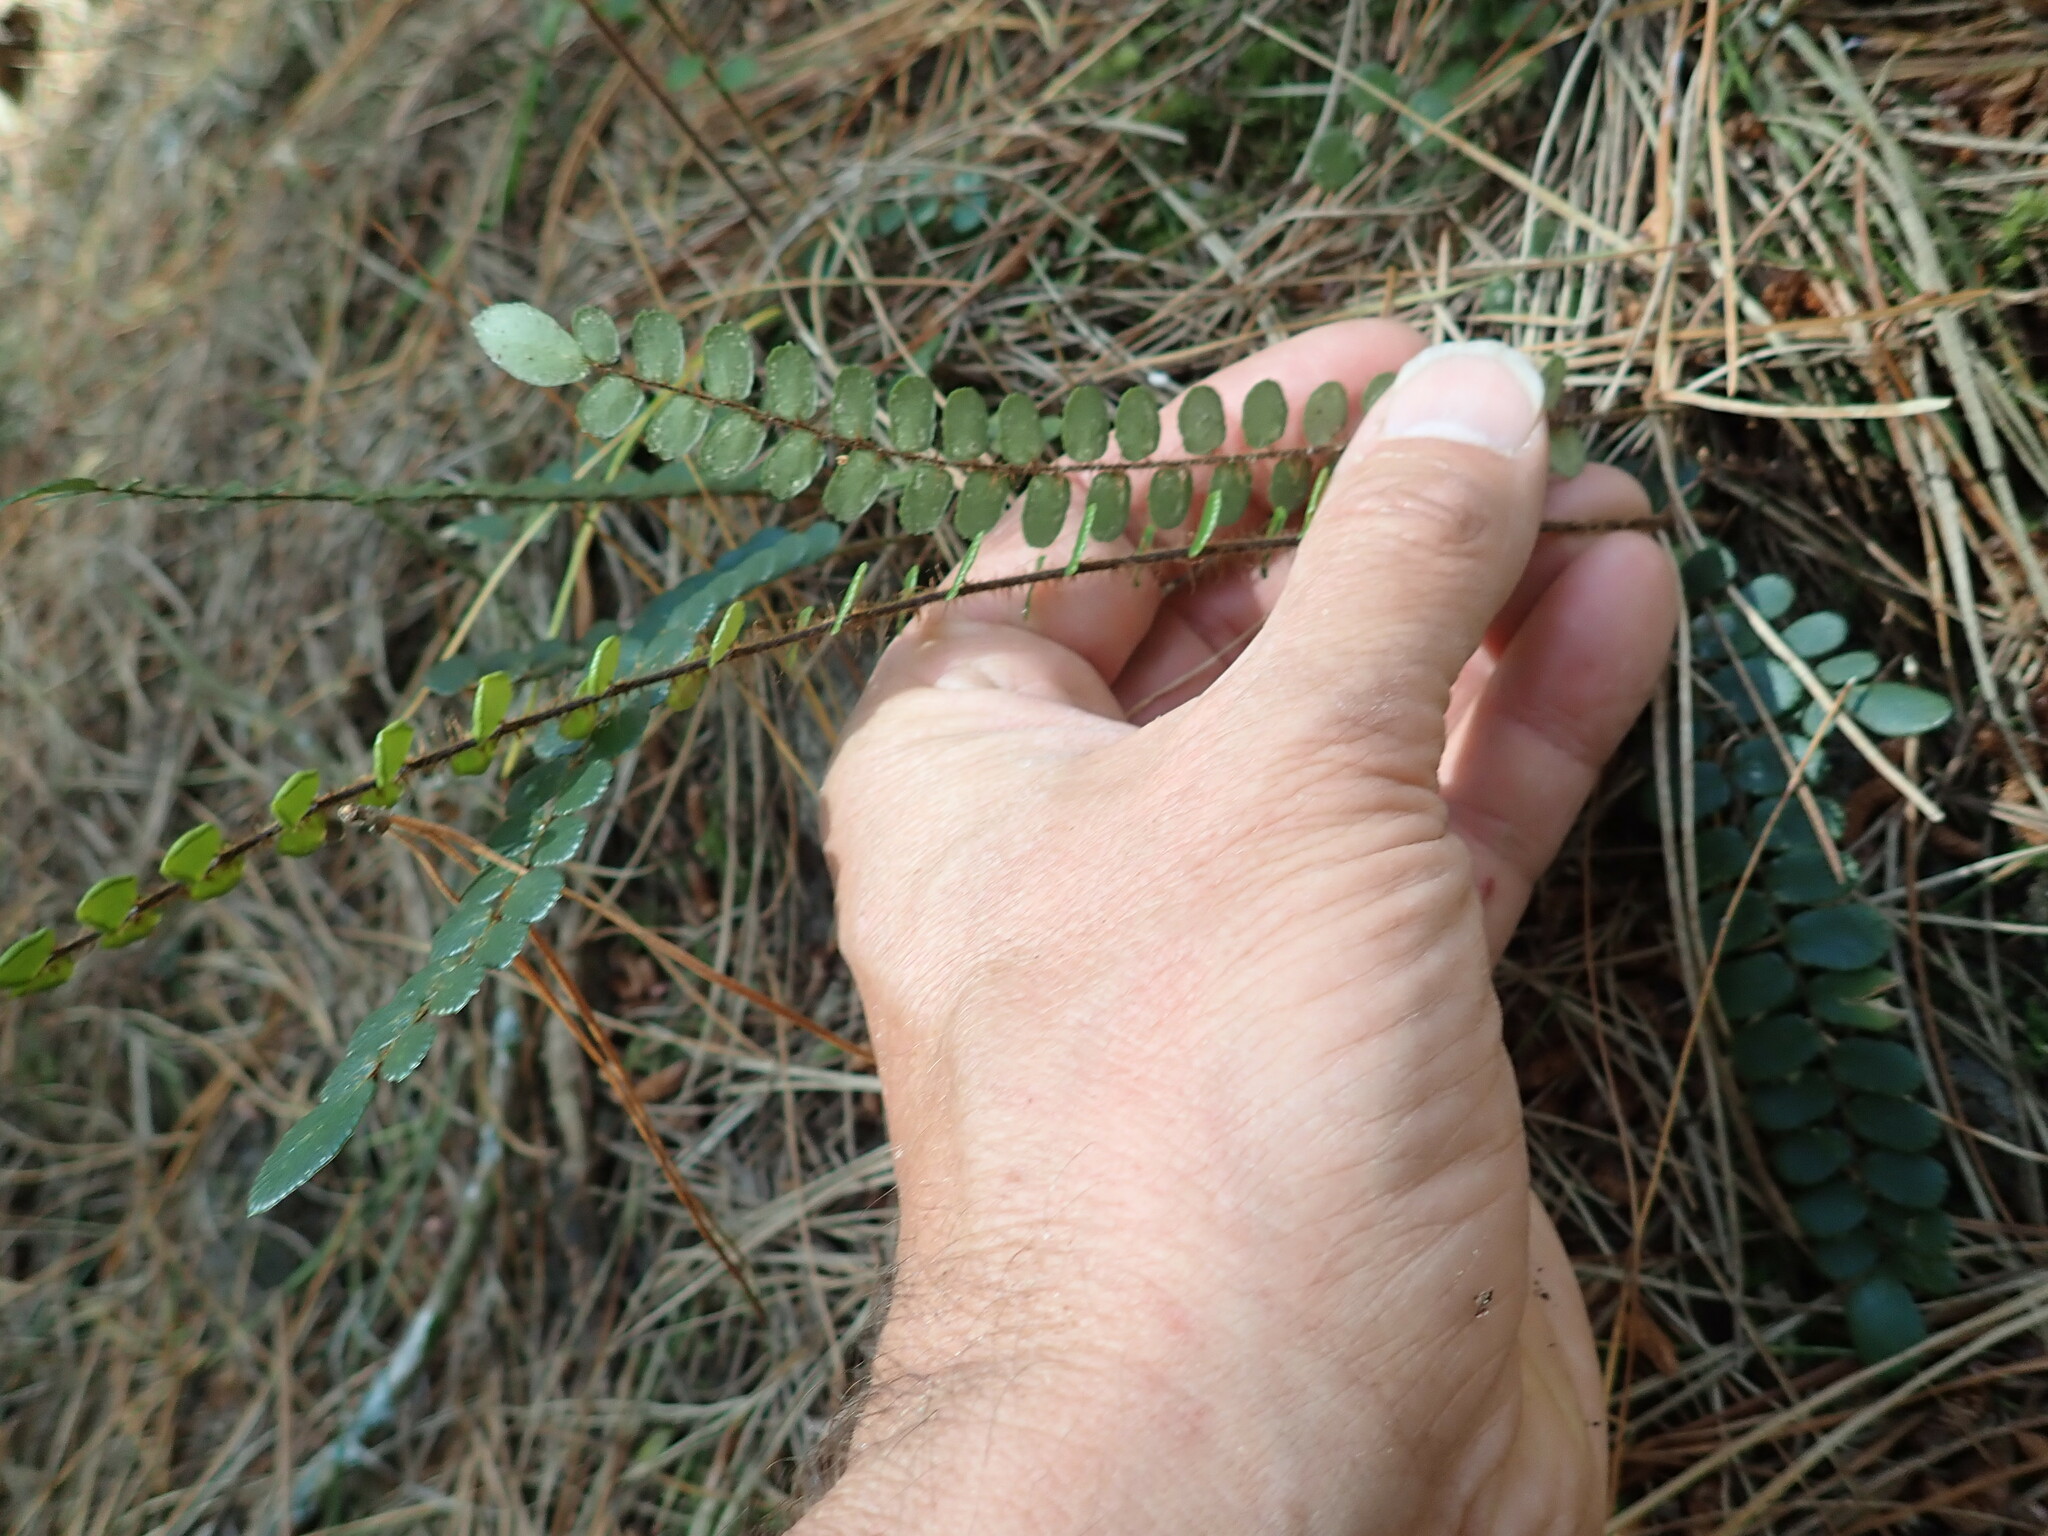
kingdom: Plantae
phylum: Tracheophyta
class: Polypodiopsida
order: Polypodiales
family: Pteridaceae
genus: Pellaea
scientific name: Pellaea rotundifolia
